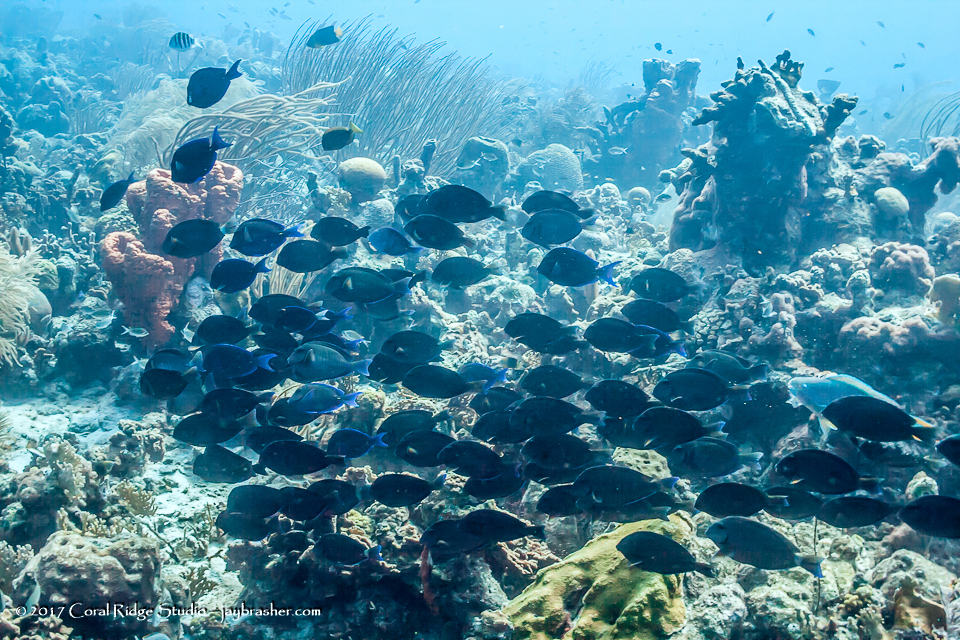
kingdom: Animalia
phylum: Chordata
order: Perciformes
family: Acanthuridae
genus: Acanthurus
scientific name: Acanthurus coeruleus
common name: Blue tang
